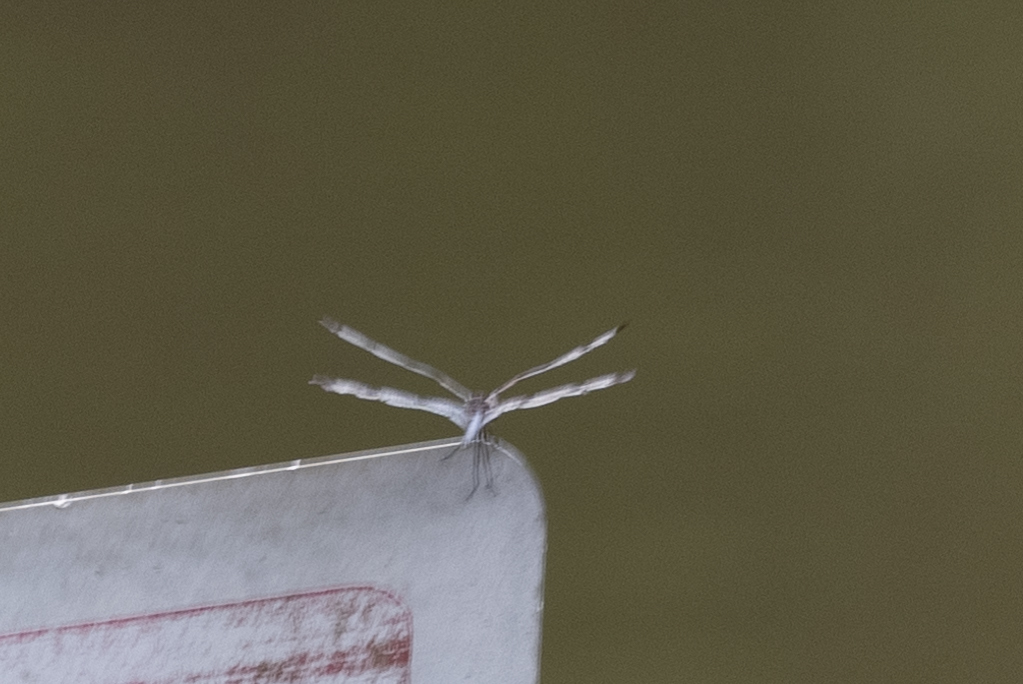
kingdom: Animalia
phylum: Arthropoda
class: Insecta
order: Odonata
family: Libellulidae
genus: Celithemis
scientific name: Celithemis fasciata
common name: Banded pennant
